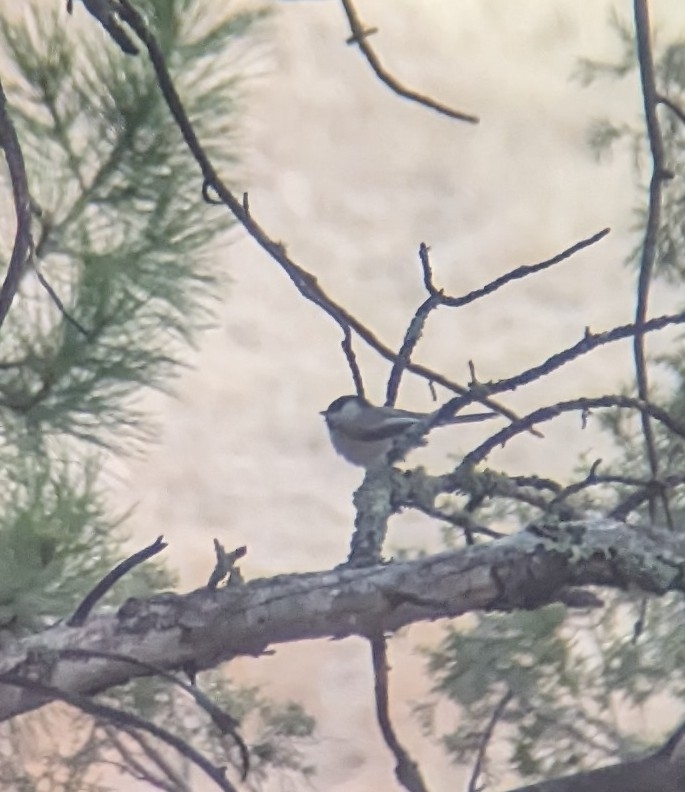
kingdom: Animalia
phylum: Chordata
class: Aves
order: Passeriformes
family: Paridae
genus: Poecile
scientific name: Poecile atricapillus
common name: Black-capped chickadee
